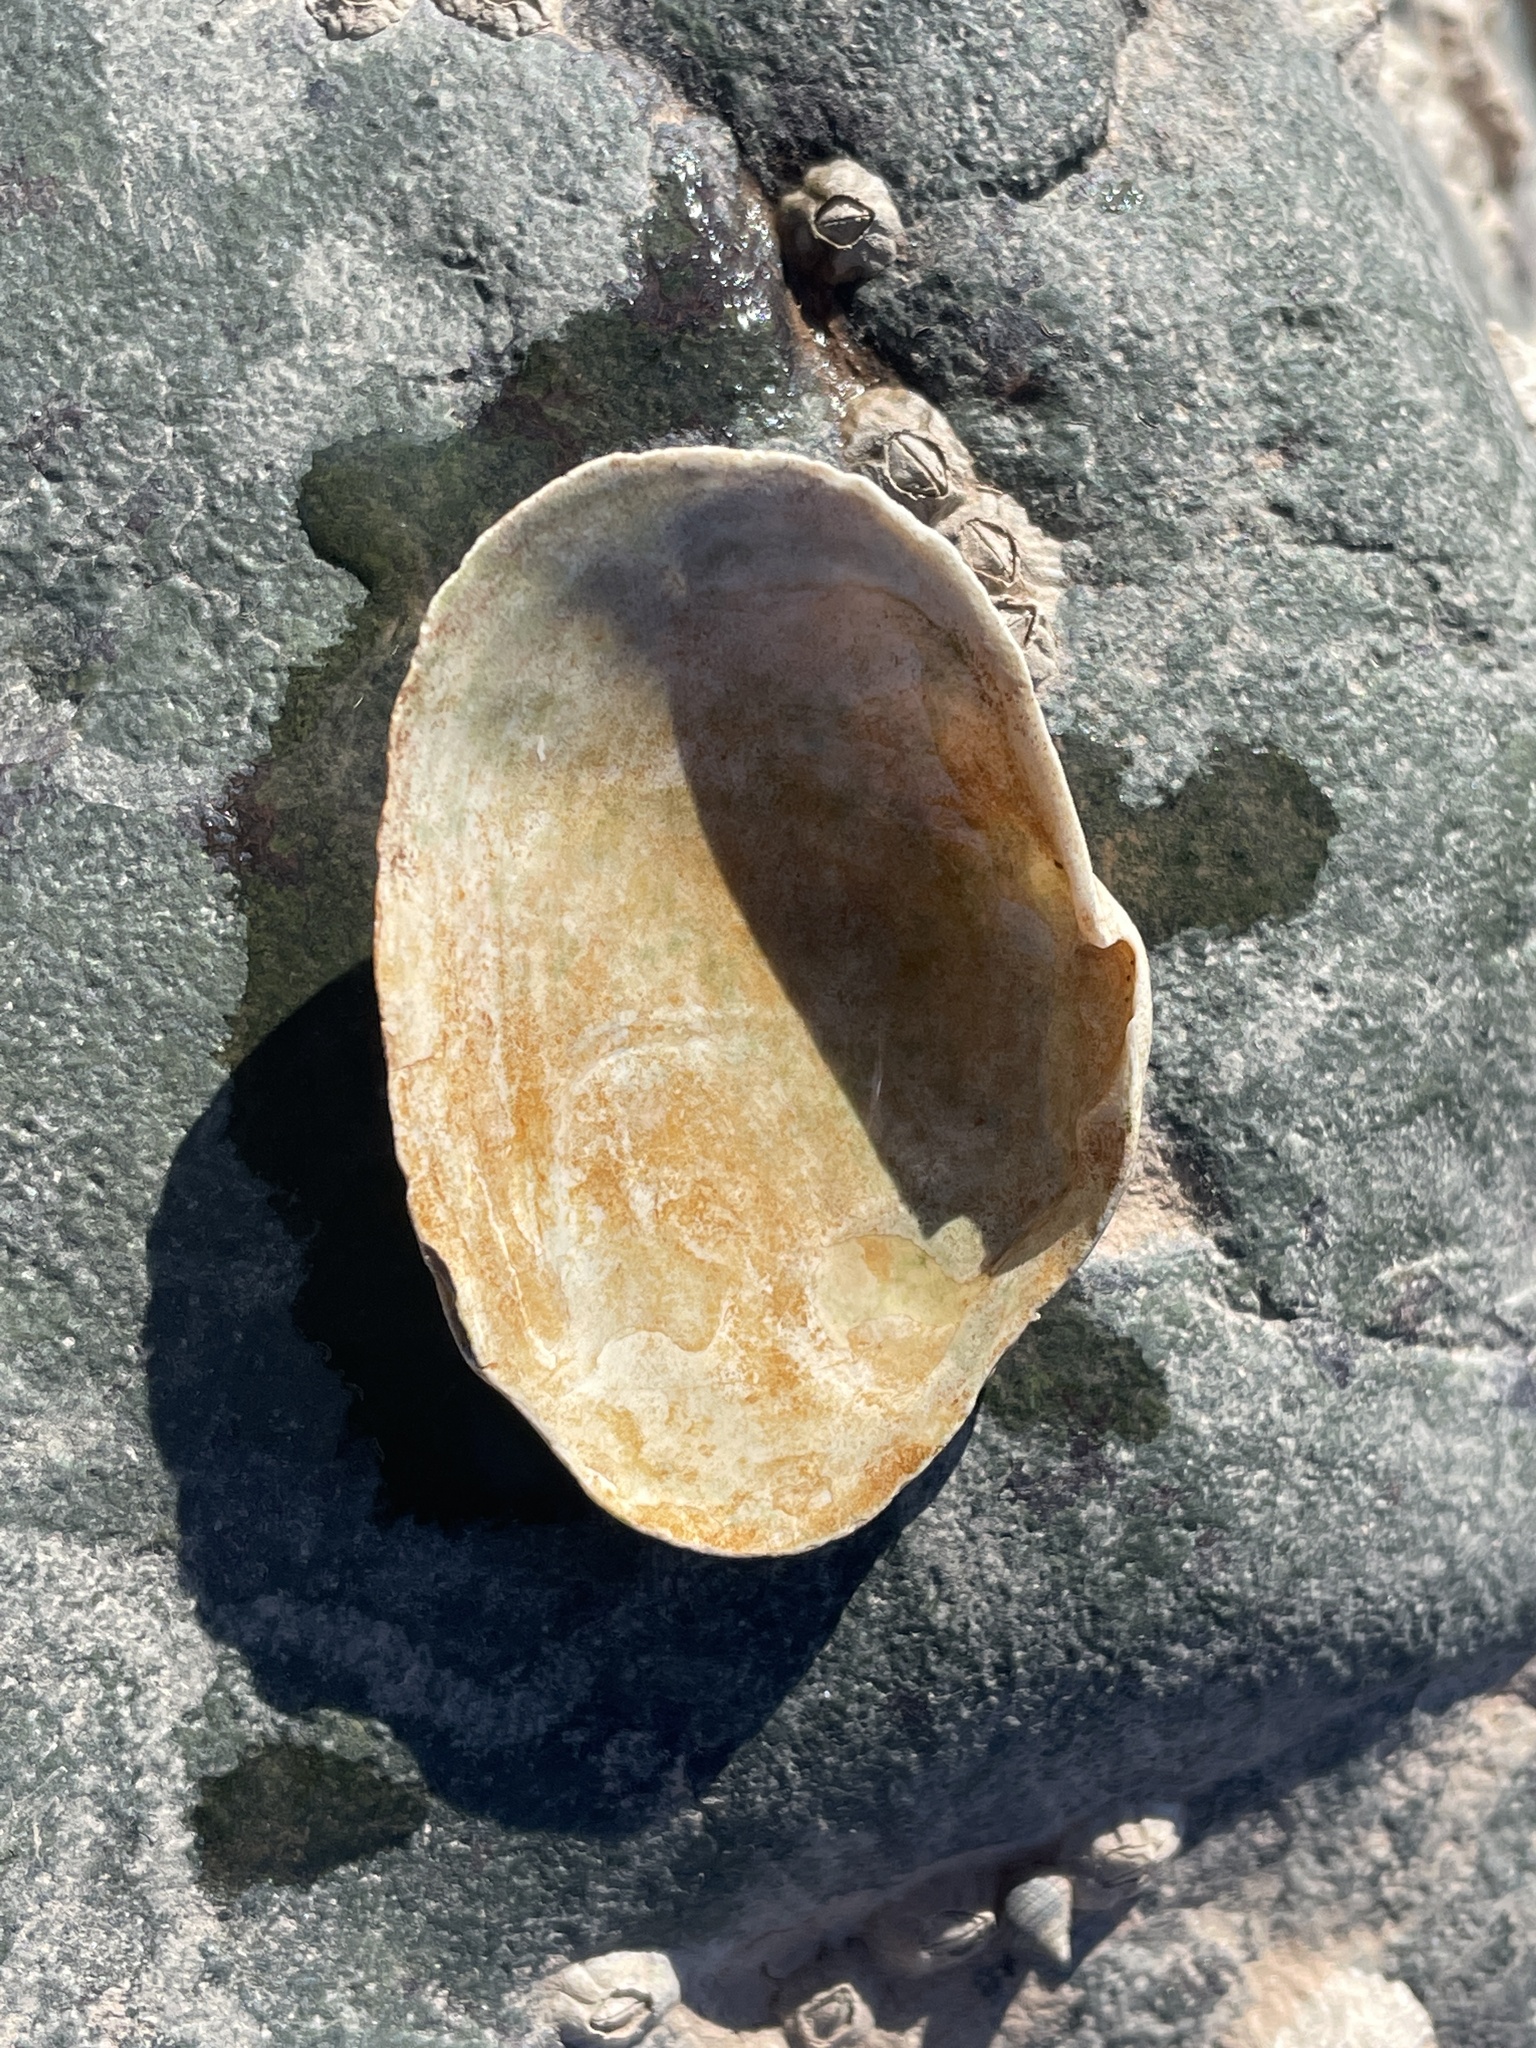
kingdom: Animalia
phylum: Mollusca
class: Bivalvia
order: Myida
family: Myidae
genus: Mya
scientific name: Mya arenaria
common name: Soft-shelled clam
